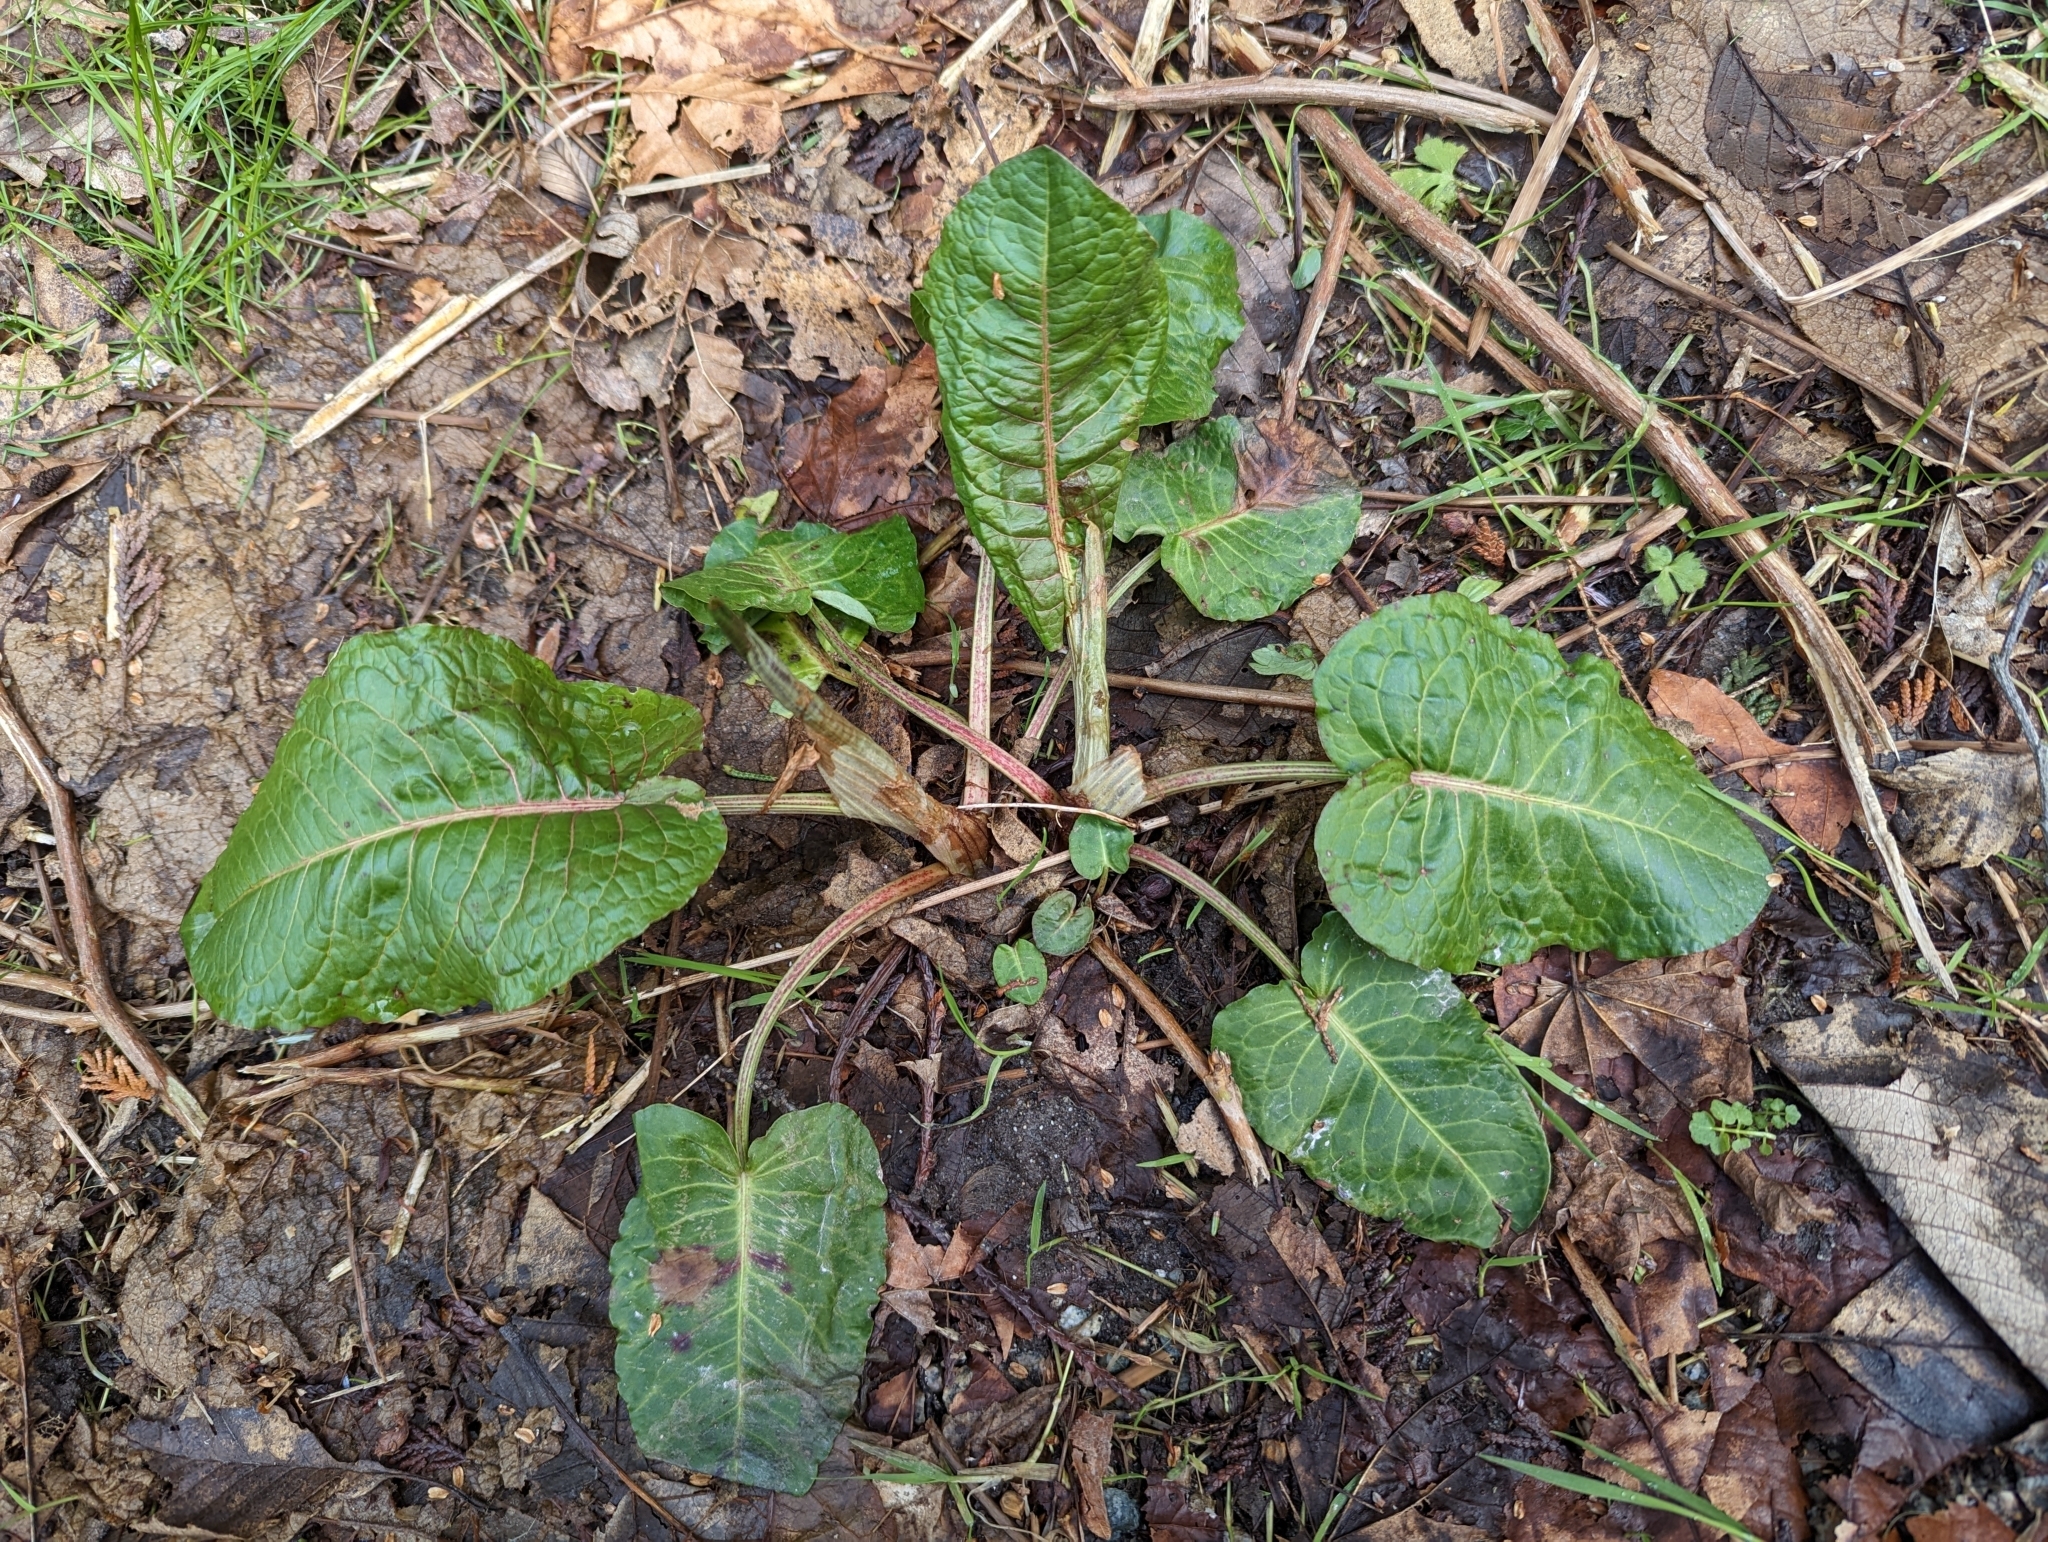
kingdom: Plantae
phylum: Tracheophyta
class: Magnoliopsida
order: Caryophyllales
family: Polygonaceae
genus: Rumex
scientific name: Rumex obtusifolius
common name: Bitter dock
